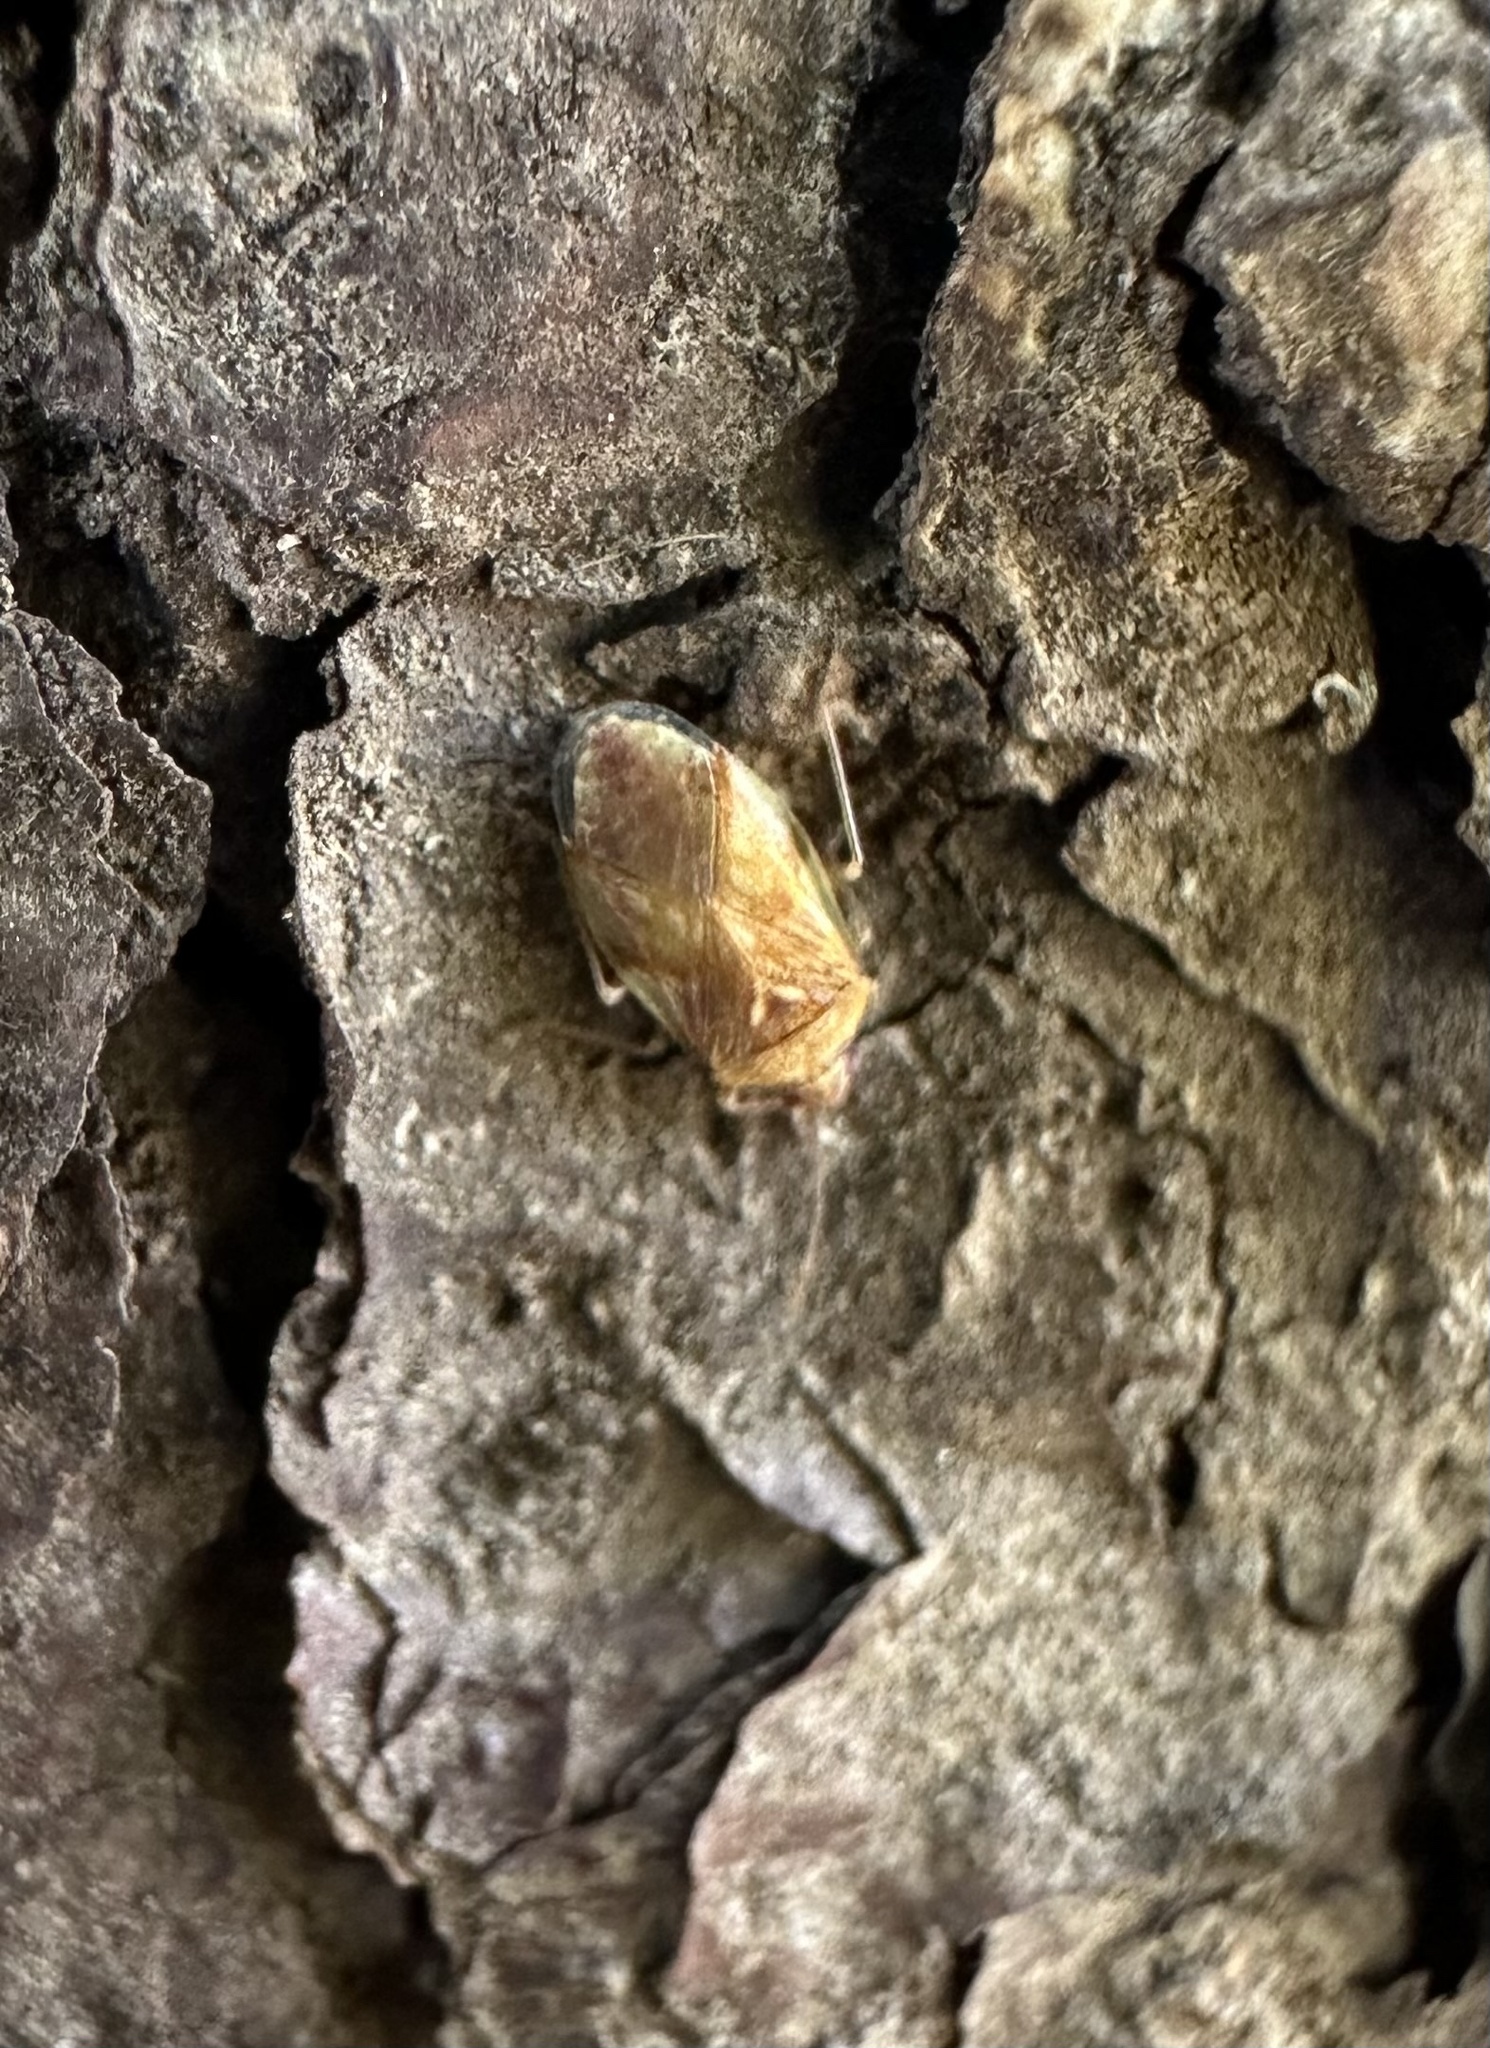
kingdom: Animalia
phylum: Arthropoda
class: Insecta
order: Hemiptera
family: Lygaeidae
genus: Syzygitis
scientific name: Syzygitis poecilus
